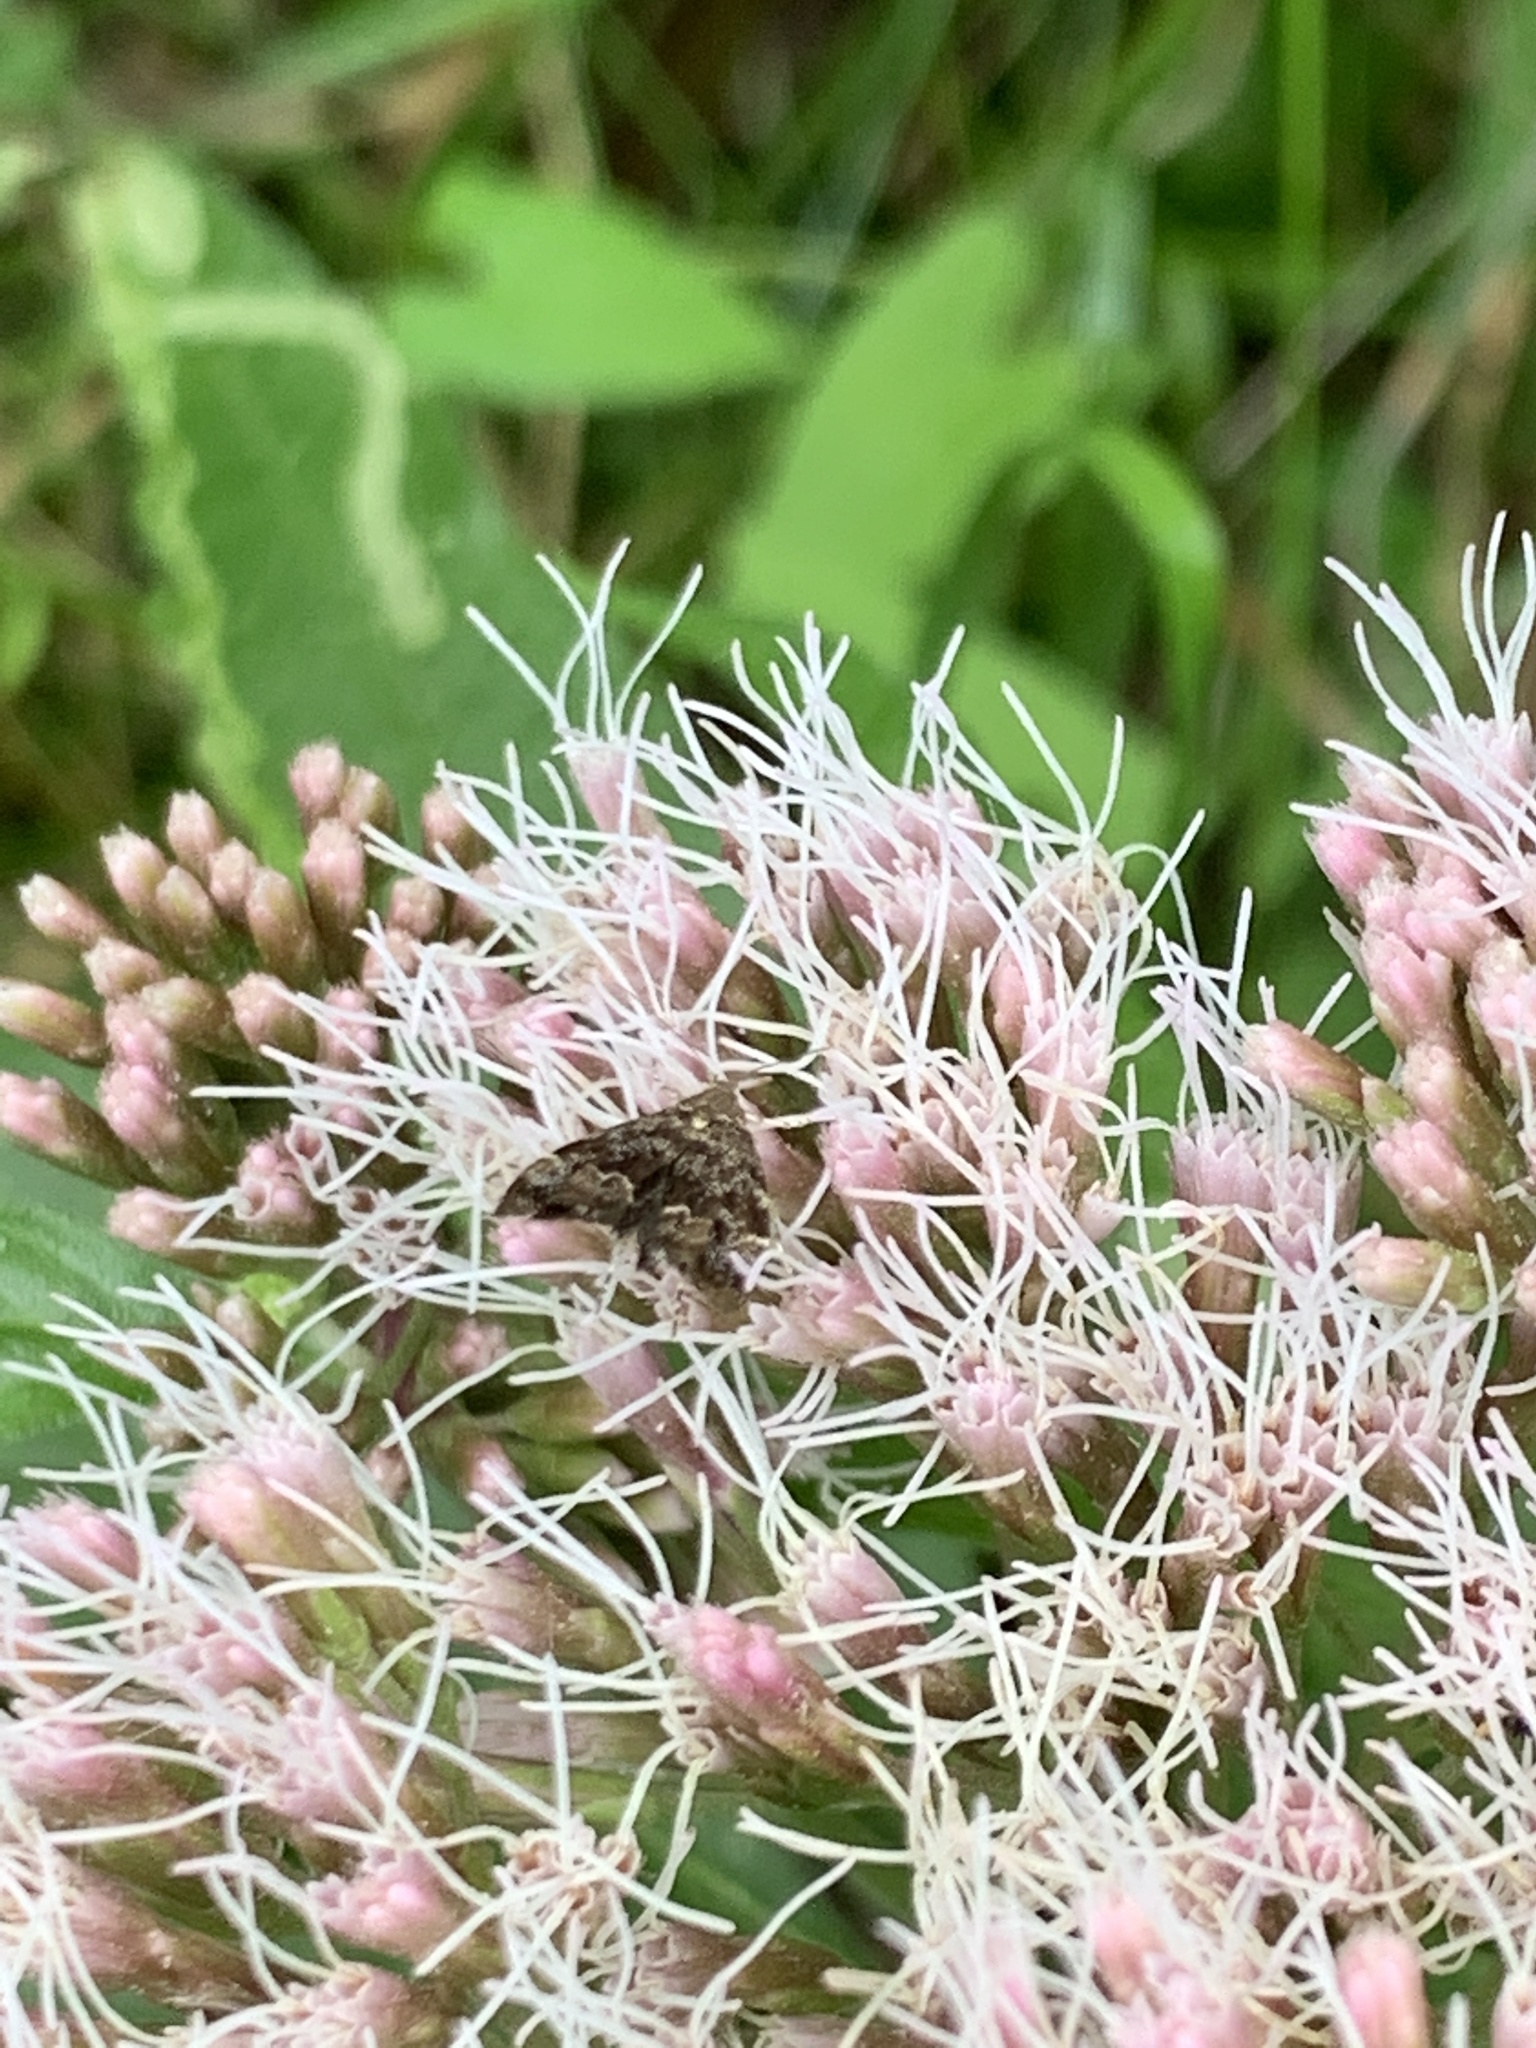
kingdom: Animalia
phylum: Arthropoda
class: Insecta
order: Lepidoptera
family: Choreutidae
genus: Anthophila
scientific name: Anthophila fabriciana
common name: Nettle-tap
